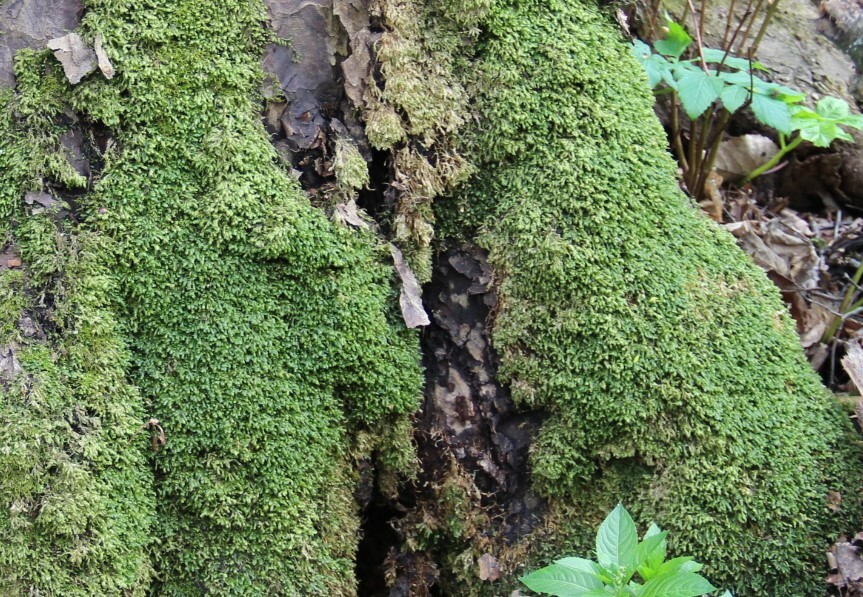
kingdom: Plantae
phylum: Bryophyta
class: Bryopsida
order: Hypnales
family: Neckeraceae
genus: Homalia
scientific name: Homalia trichomanoides
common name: Lime homalia moss
